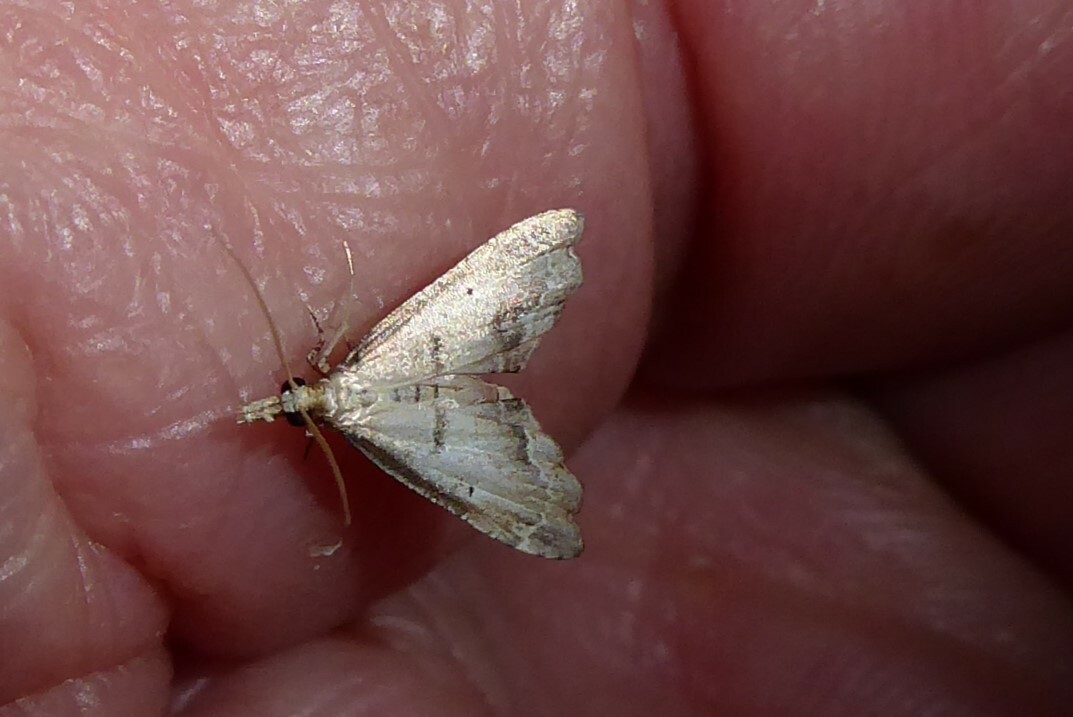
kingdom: Animalia
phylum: Arthropoda
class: Insecta
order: Lepidoptera
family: Crambidae
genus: Diplopseustis
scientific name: Diplopseustis perieresalis
